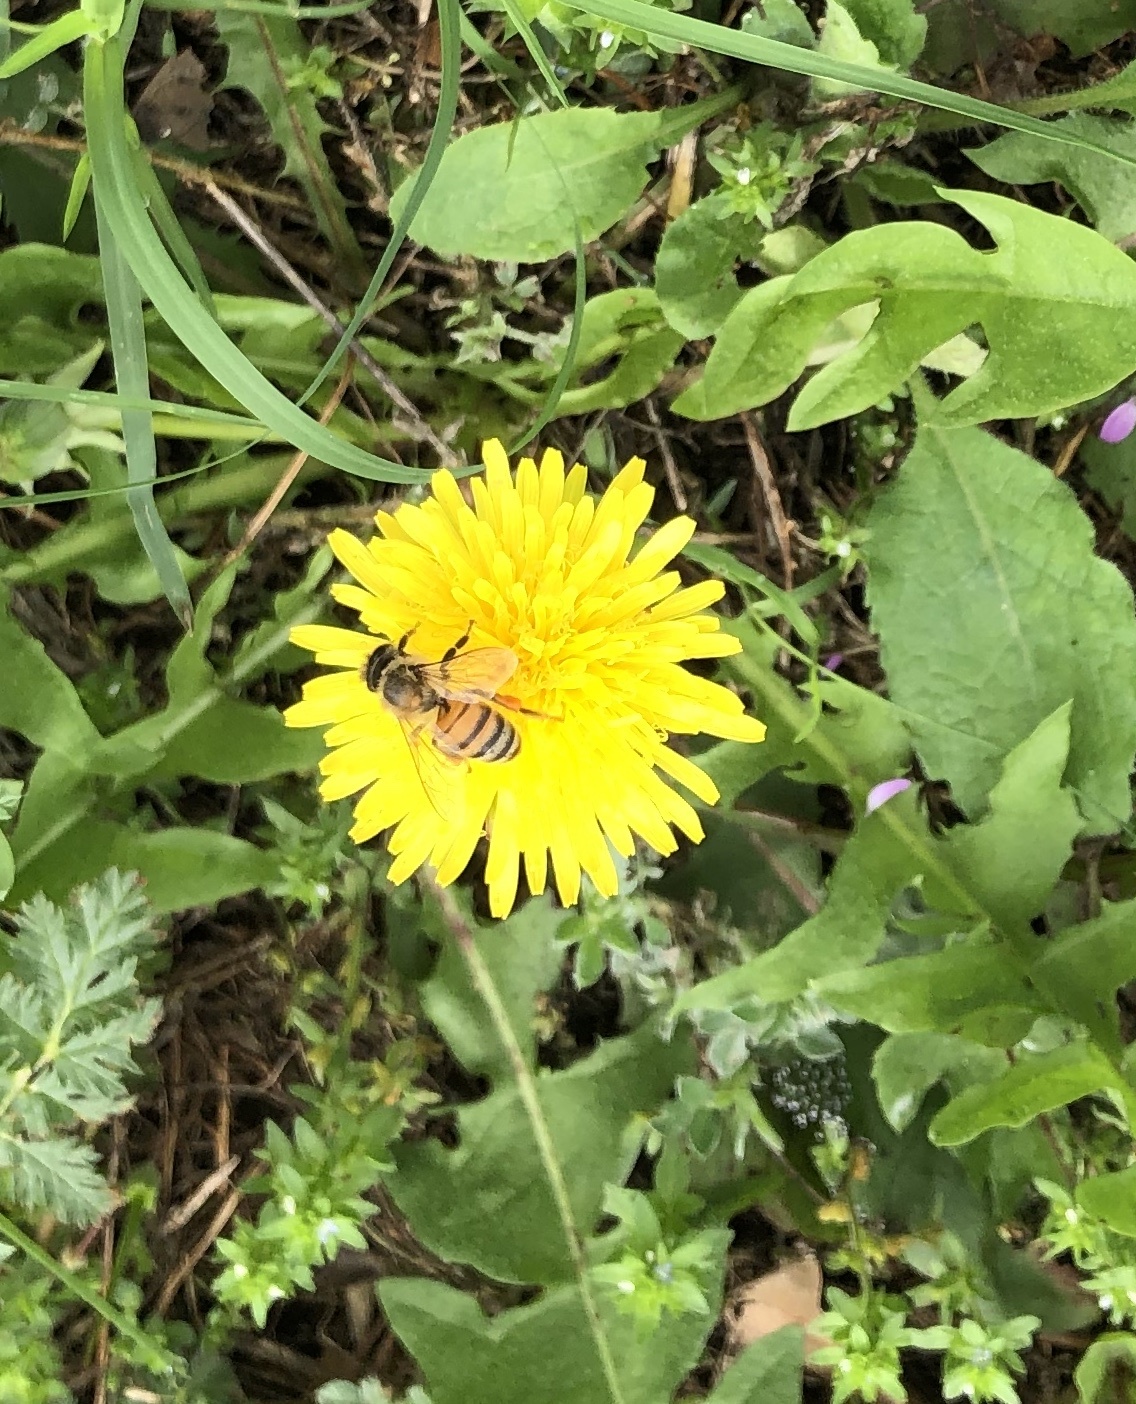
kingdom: Animalia
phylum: Arthropoda
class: Insecta
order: Hymenoptera
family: Apidae
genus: Apis
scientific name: Apis mellifera
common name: Honey bee
